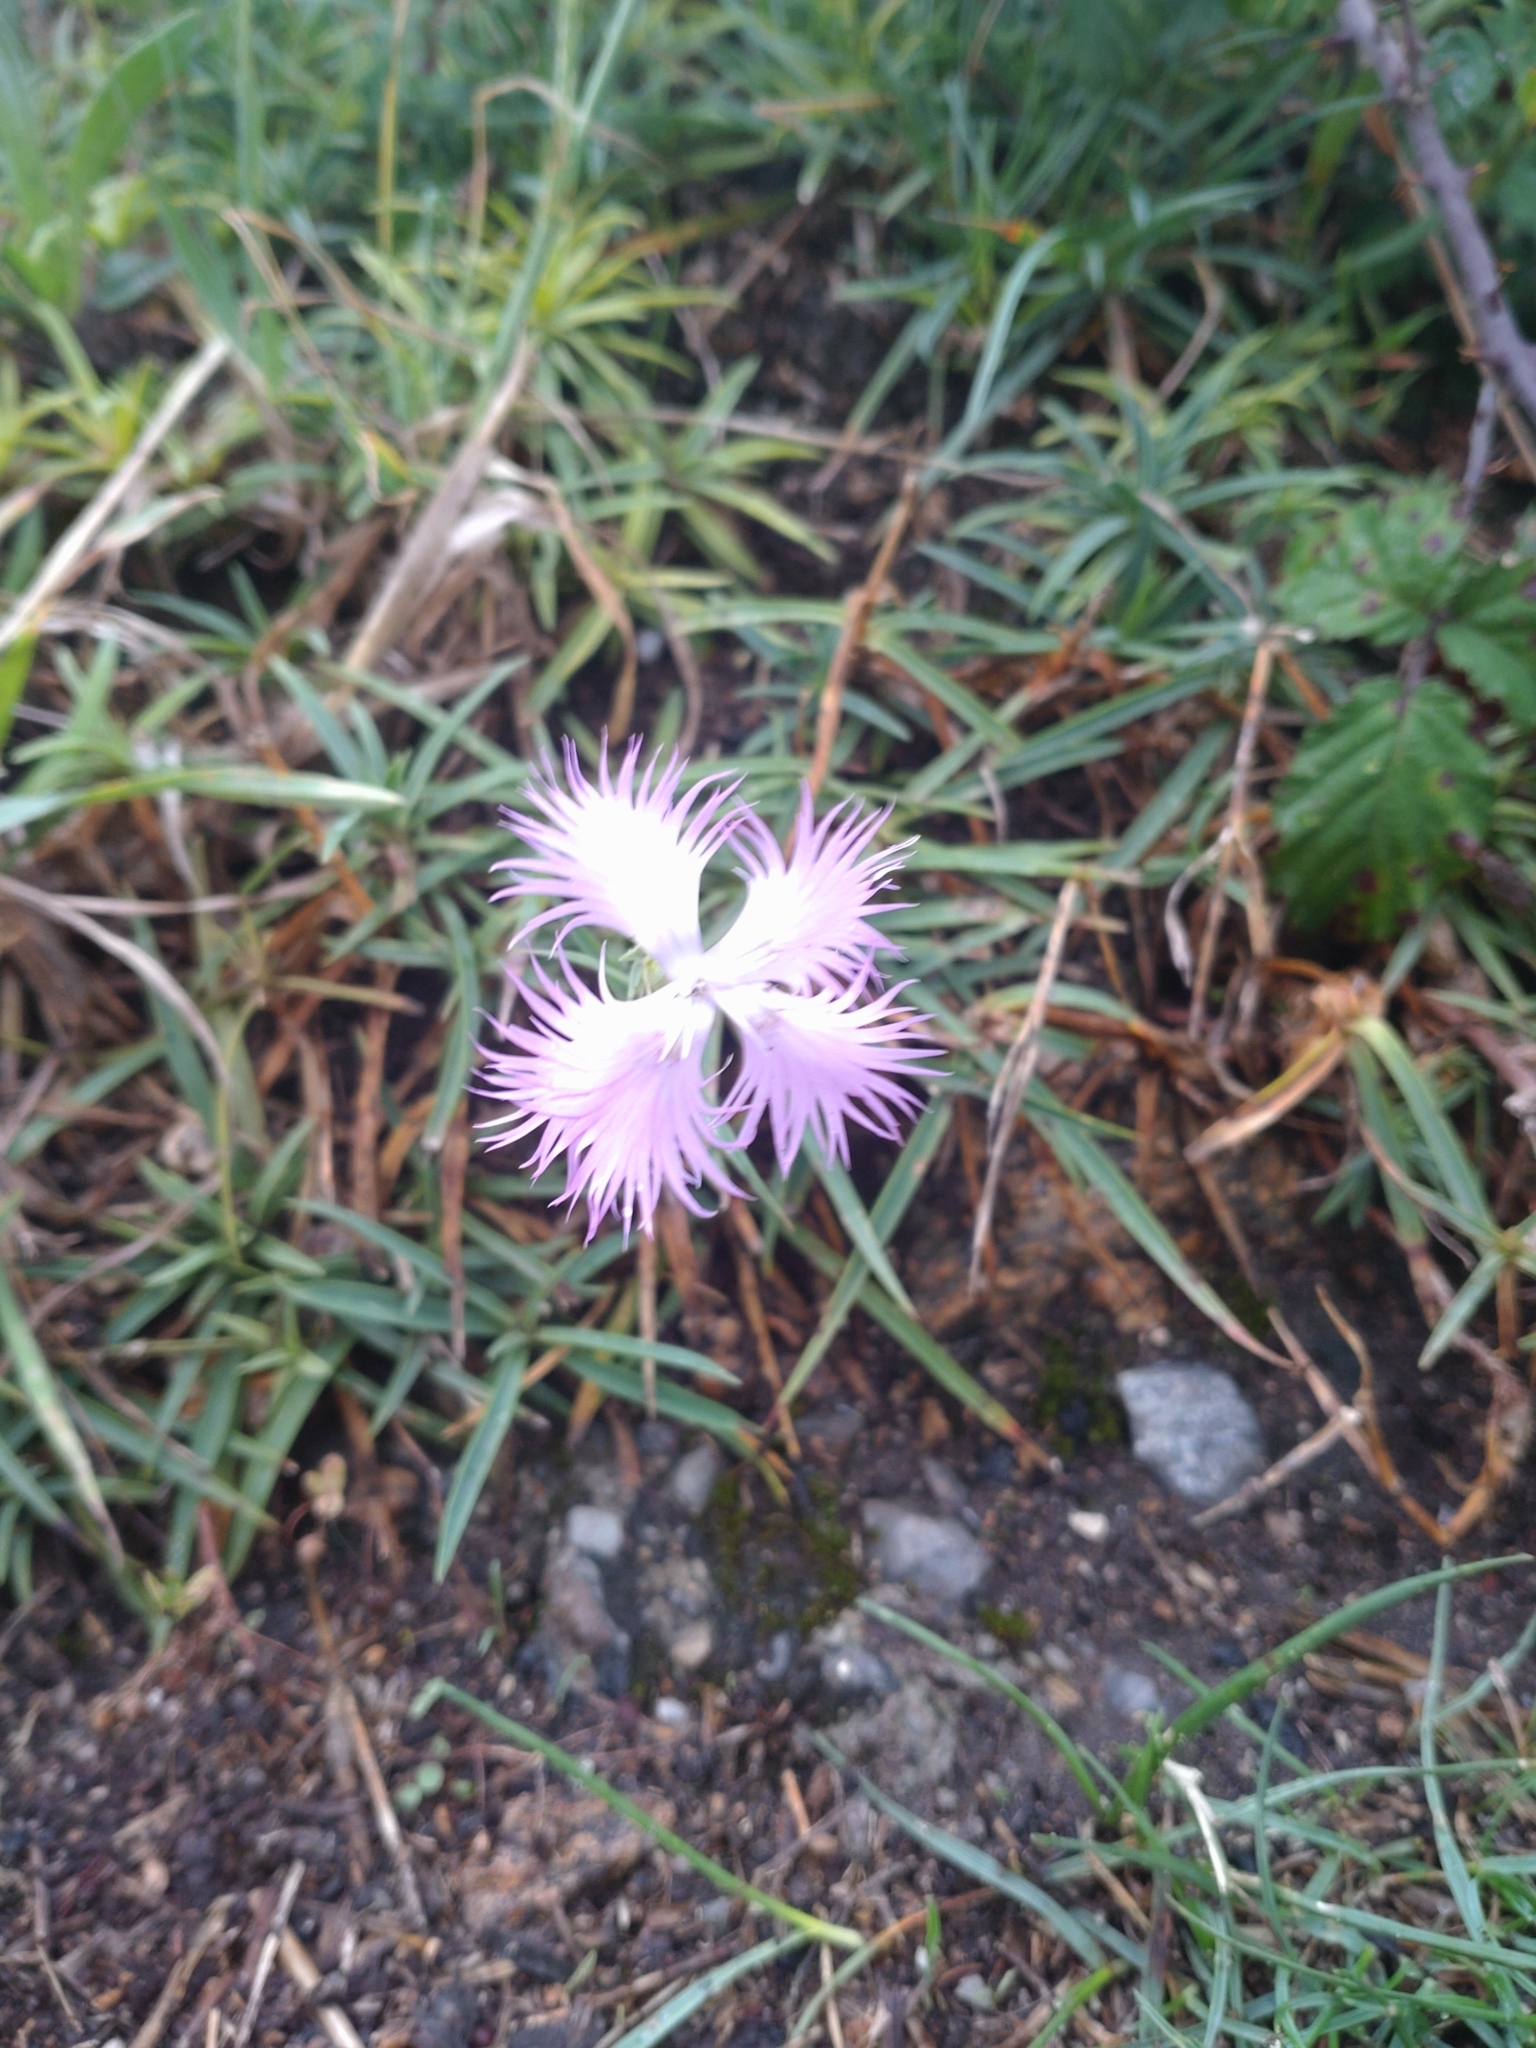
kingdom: Plantae
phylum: Tracheophyta
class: Magnoliopsida
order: Caryophyllales
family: Caryophyllaceae
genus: Dianthus
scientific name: Dianthus hyssopifolius
